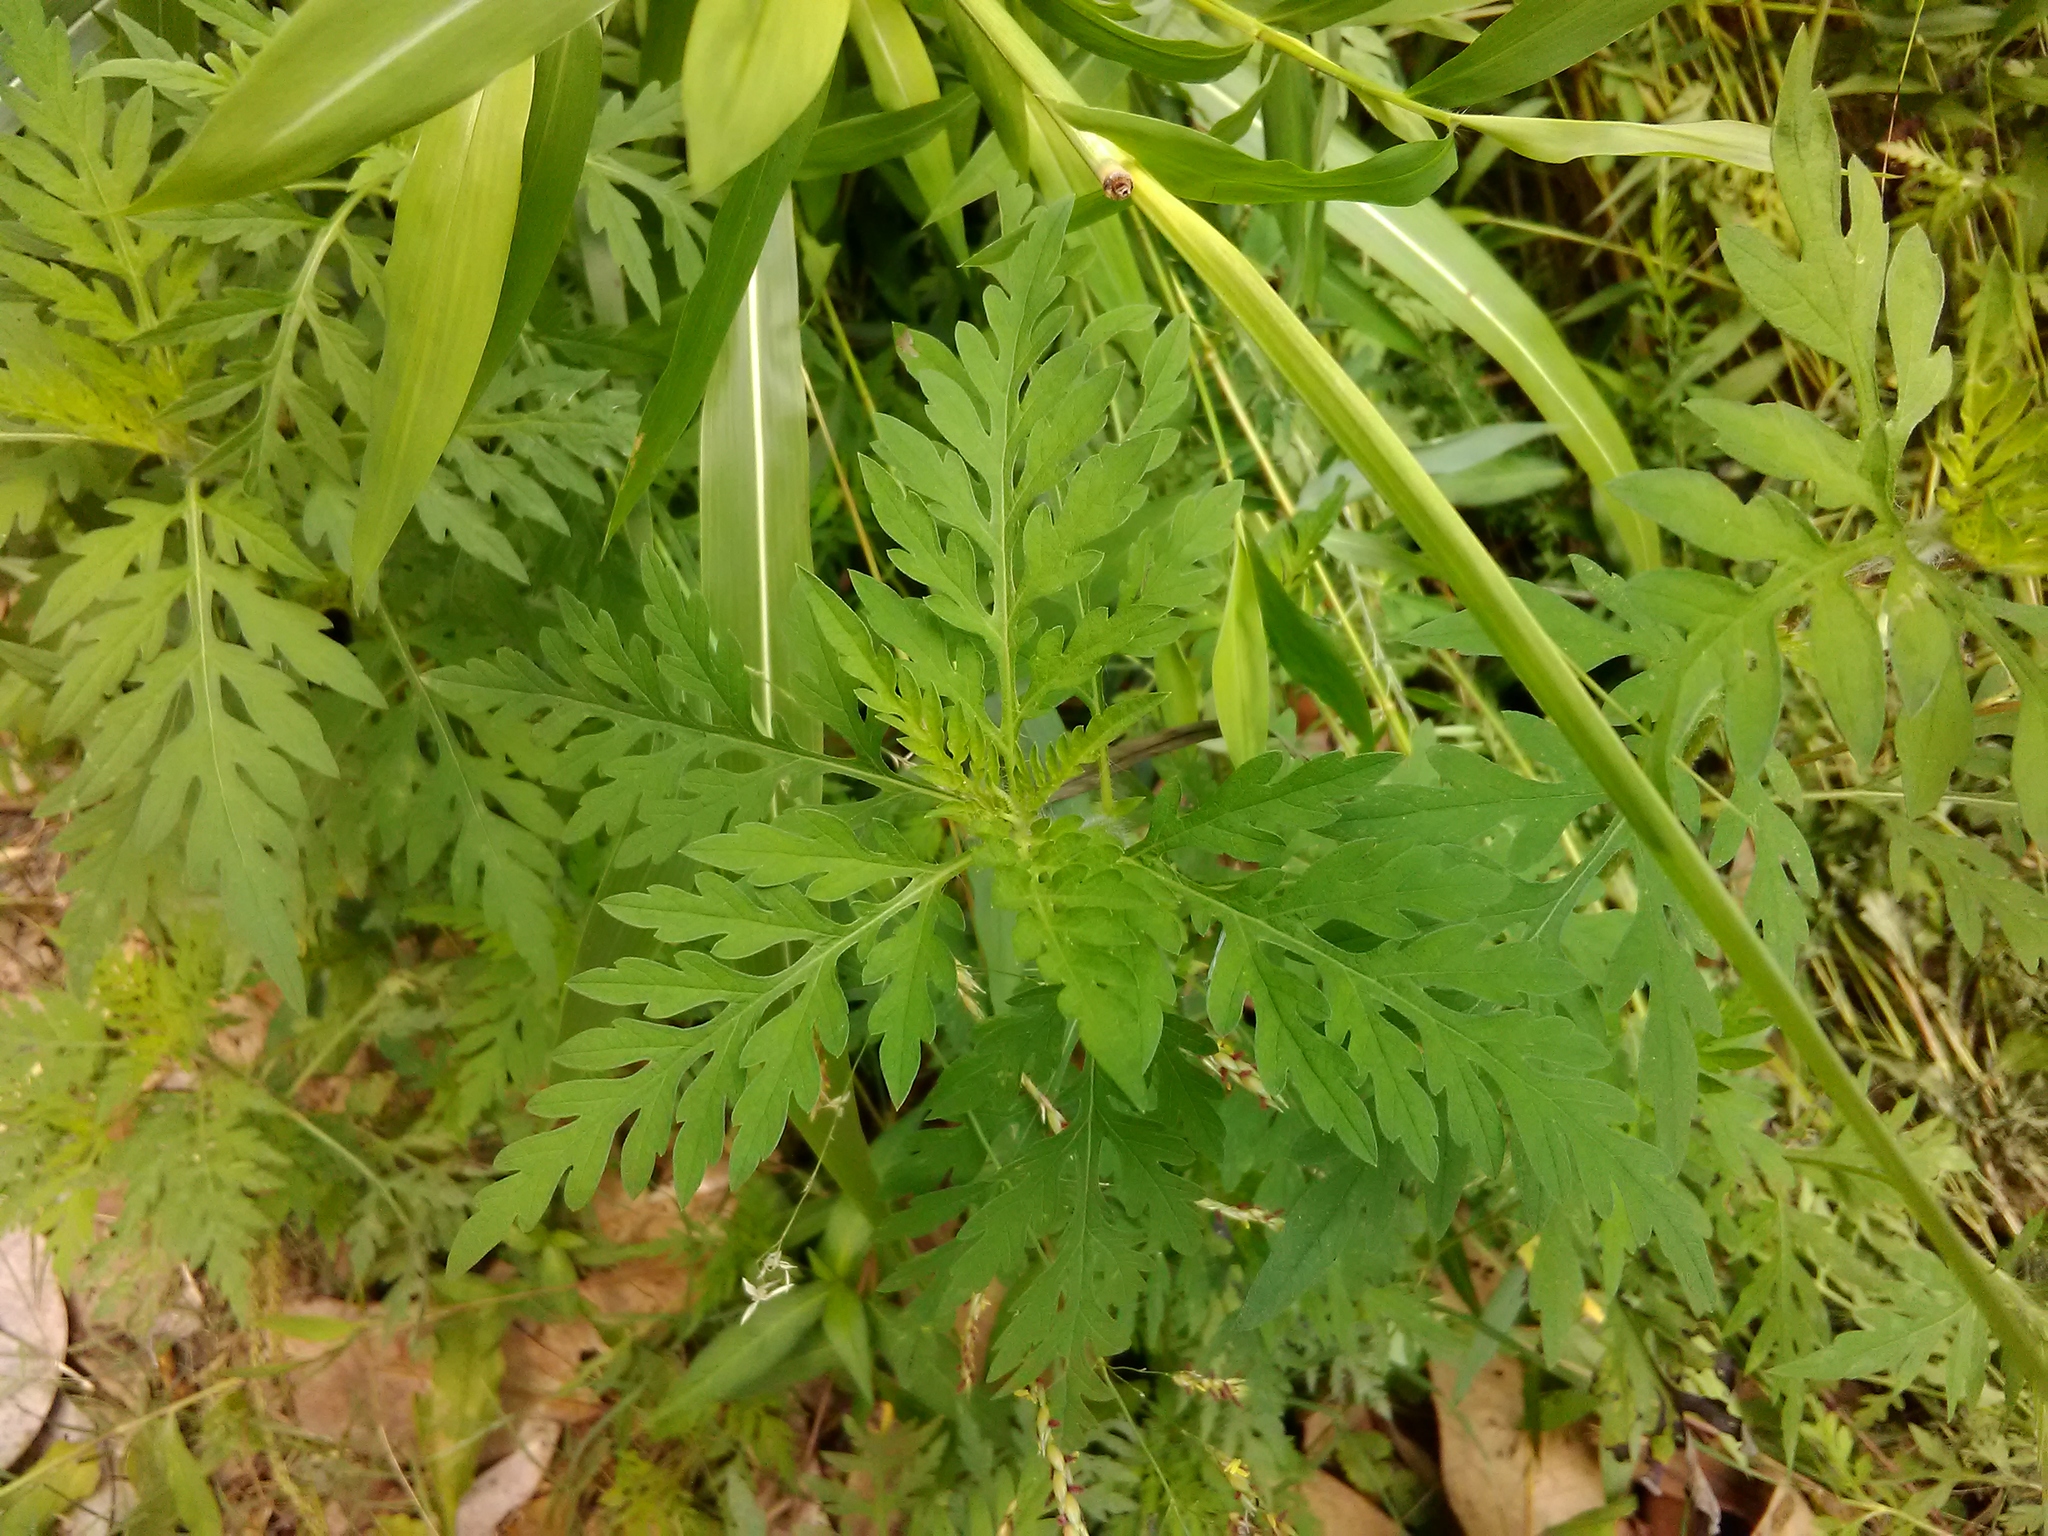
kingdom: Plantae
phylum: Tracheophyta
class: Magnoliopsida
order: Asterales
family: Asteraceae
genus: Ambrosia
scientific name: Ambrosia artemisiifolia
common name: Annual ragweed
